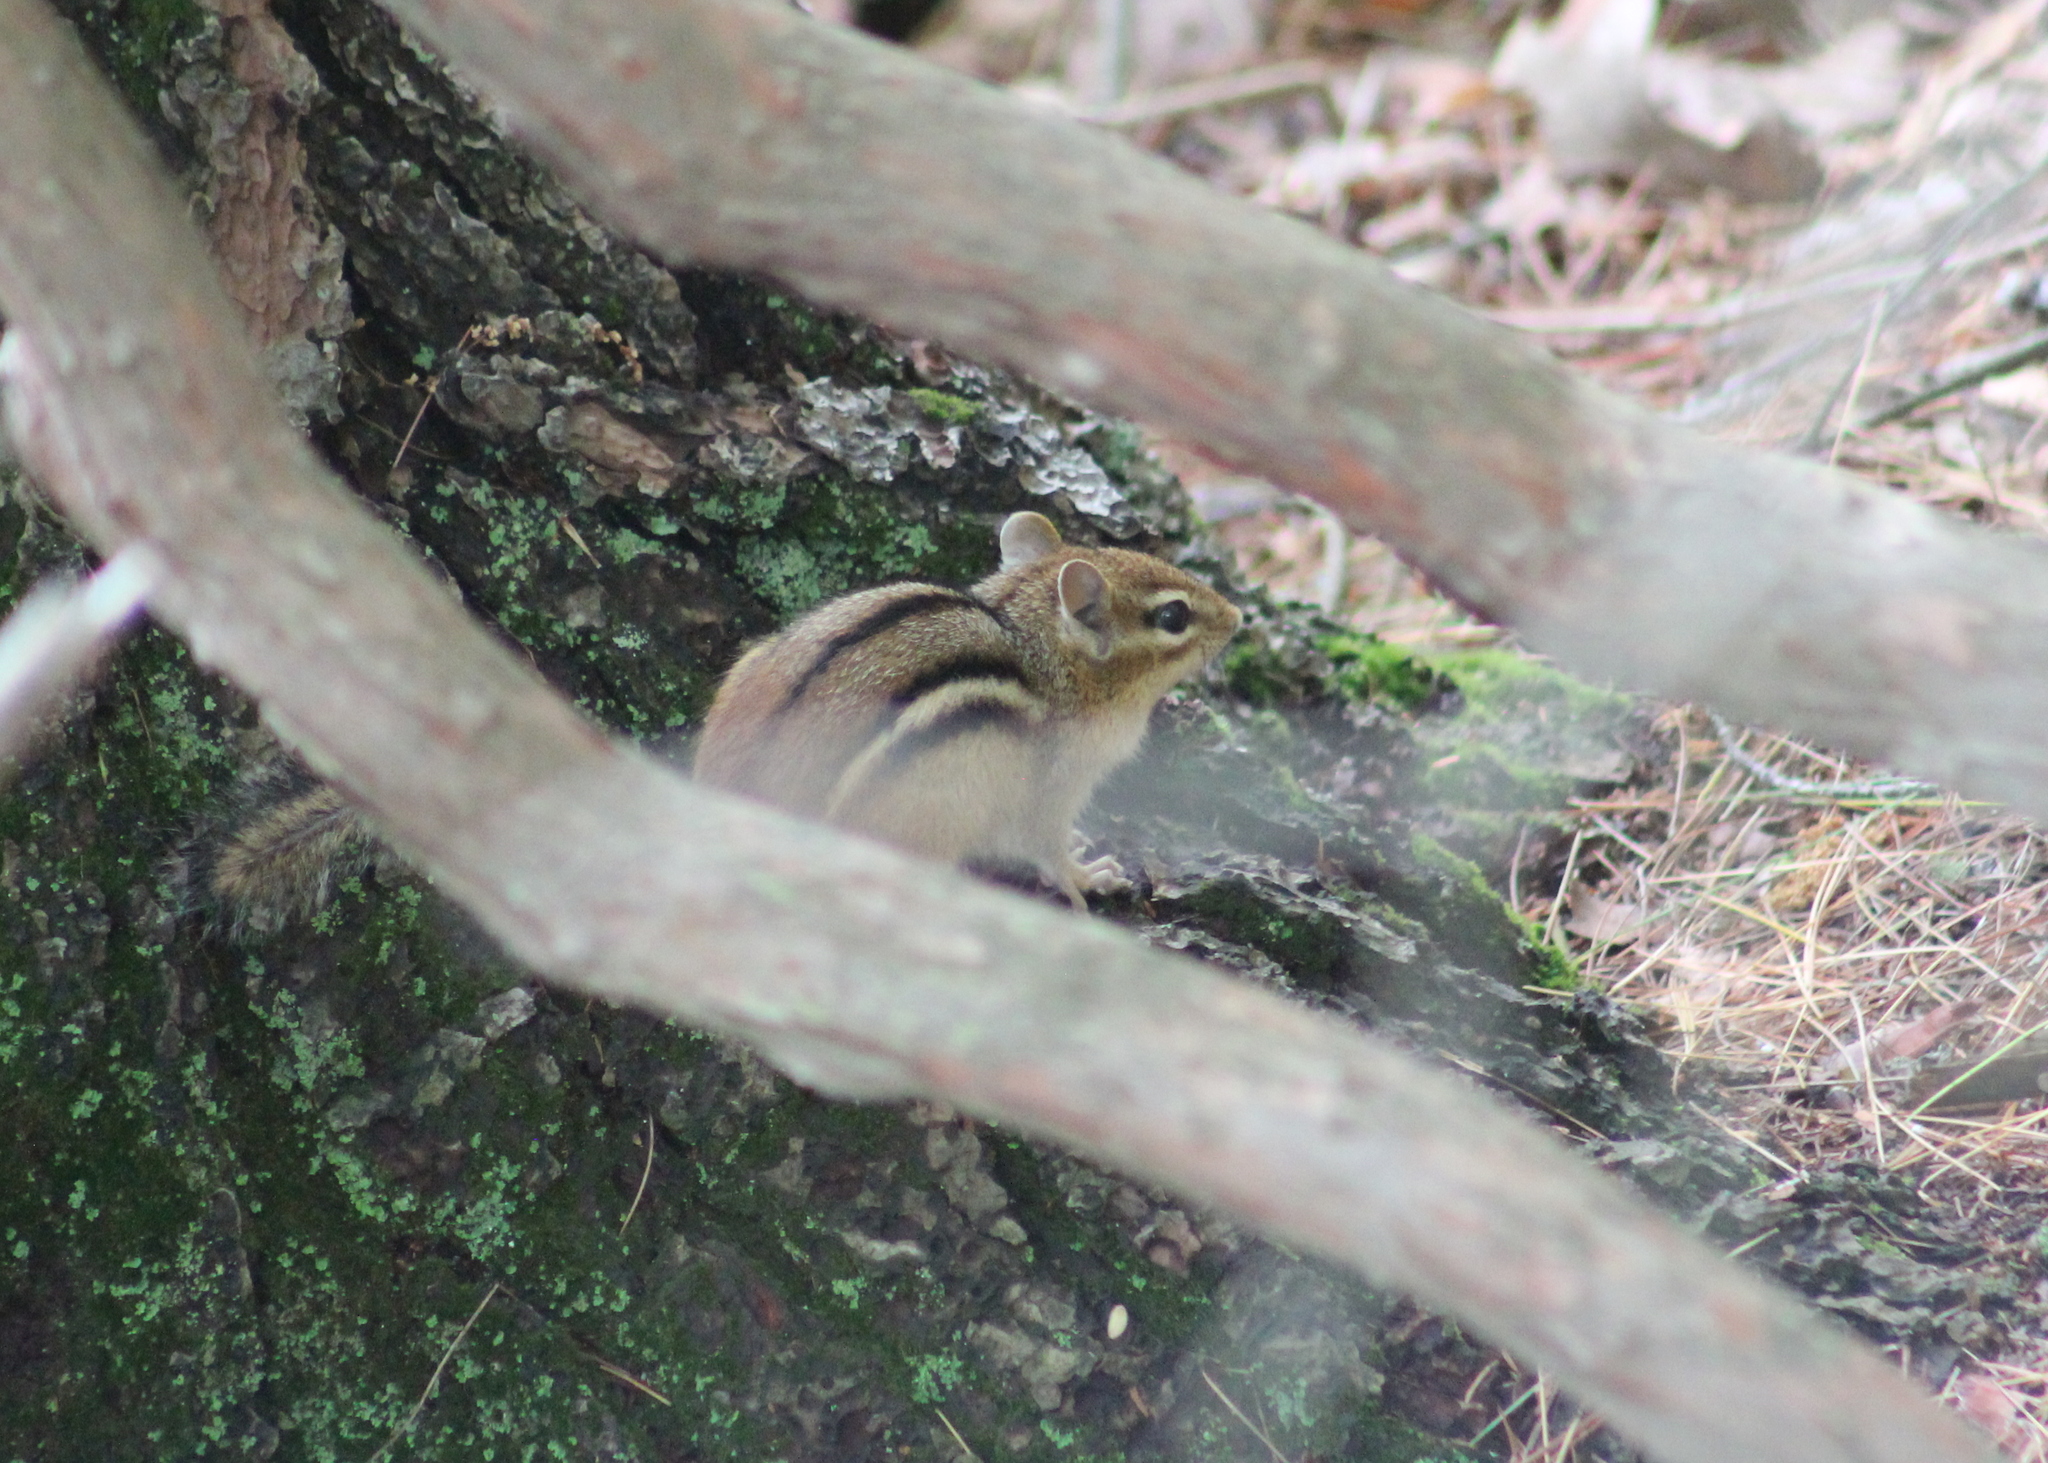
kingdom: Animalia
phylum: Chordata
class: Mammalia
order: Rodentia
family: Sciuridae
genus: Tamias
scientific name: Tamias striatus
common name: Eastern chipmunk
